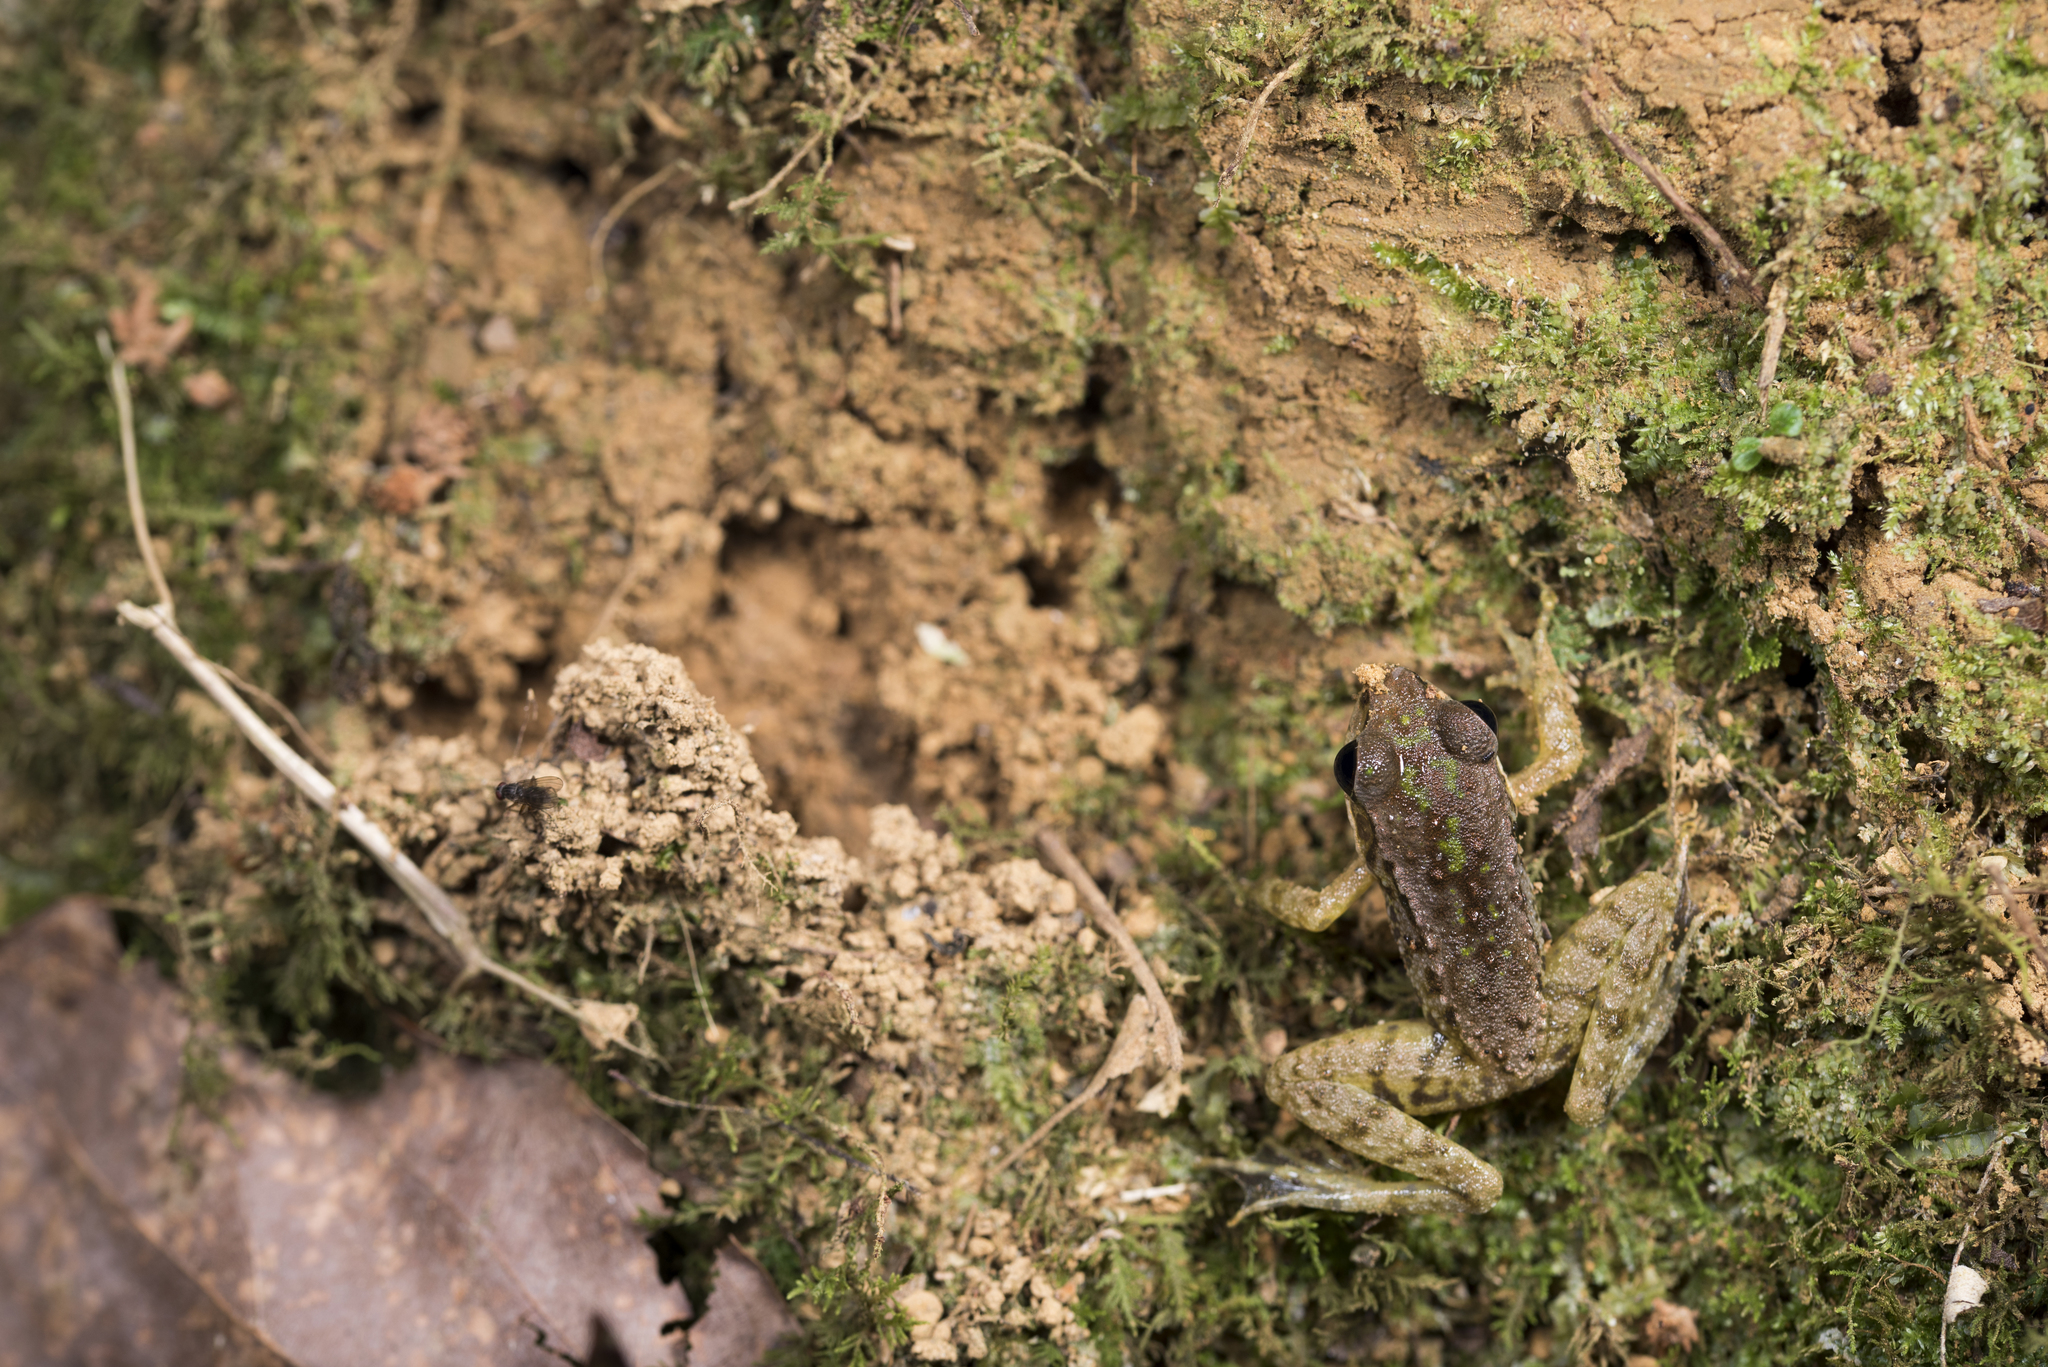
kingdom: Animalia
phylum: Chordata
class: Amphibia
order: Anura
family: Ranidae
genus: Odorrana
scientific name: Odorrana swinhoana
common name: Bangkimtsing frog
